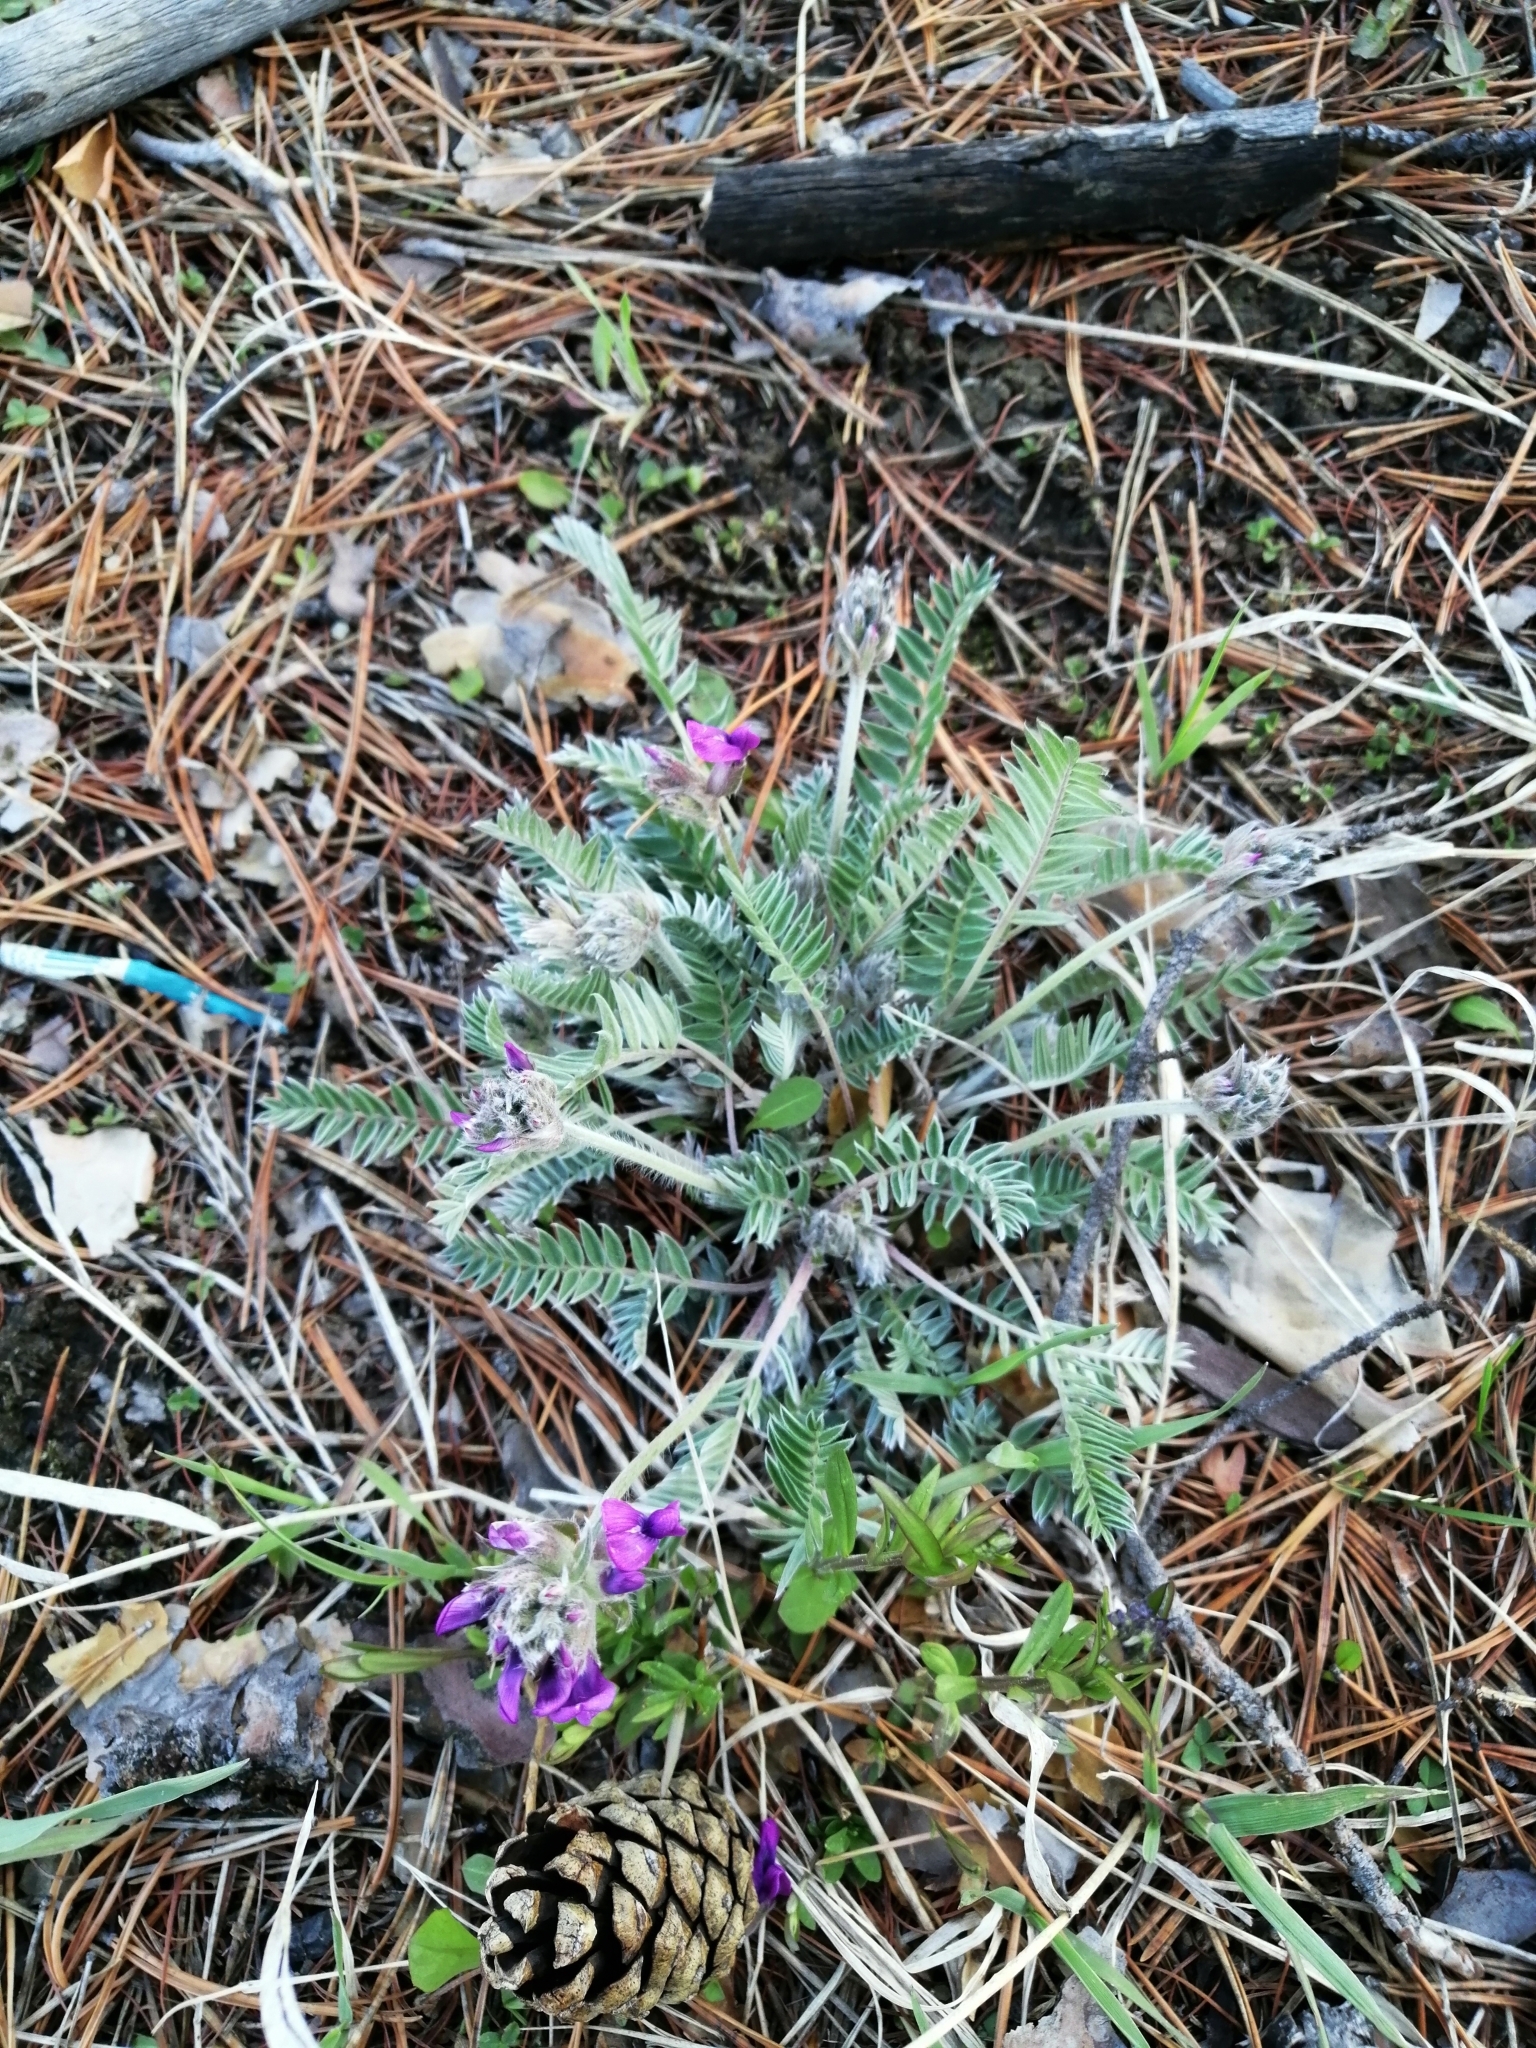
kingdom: Plantae
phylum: Tracheophyta
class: Magnoliopsida
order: Fabales
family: Fabaceae
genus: Oxytropis
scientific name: Oxytropis strobilacea
